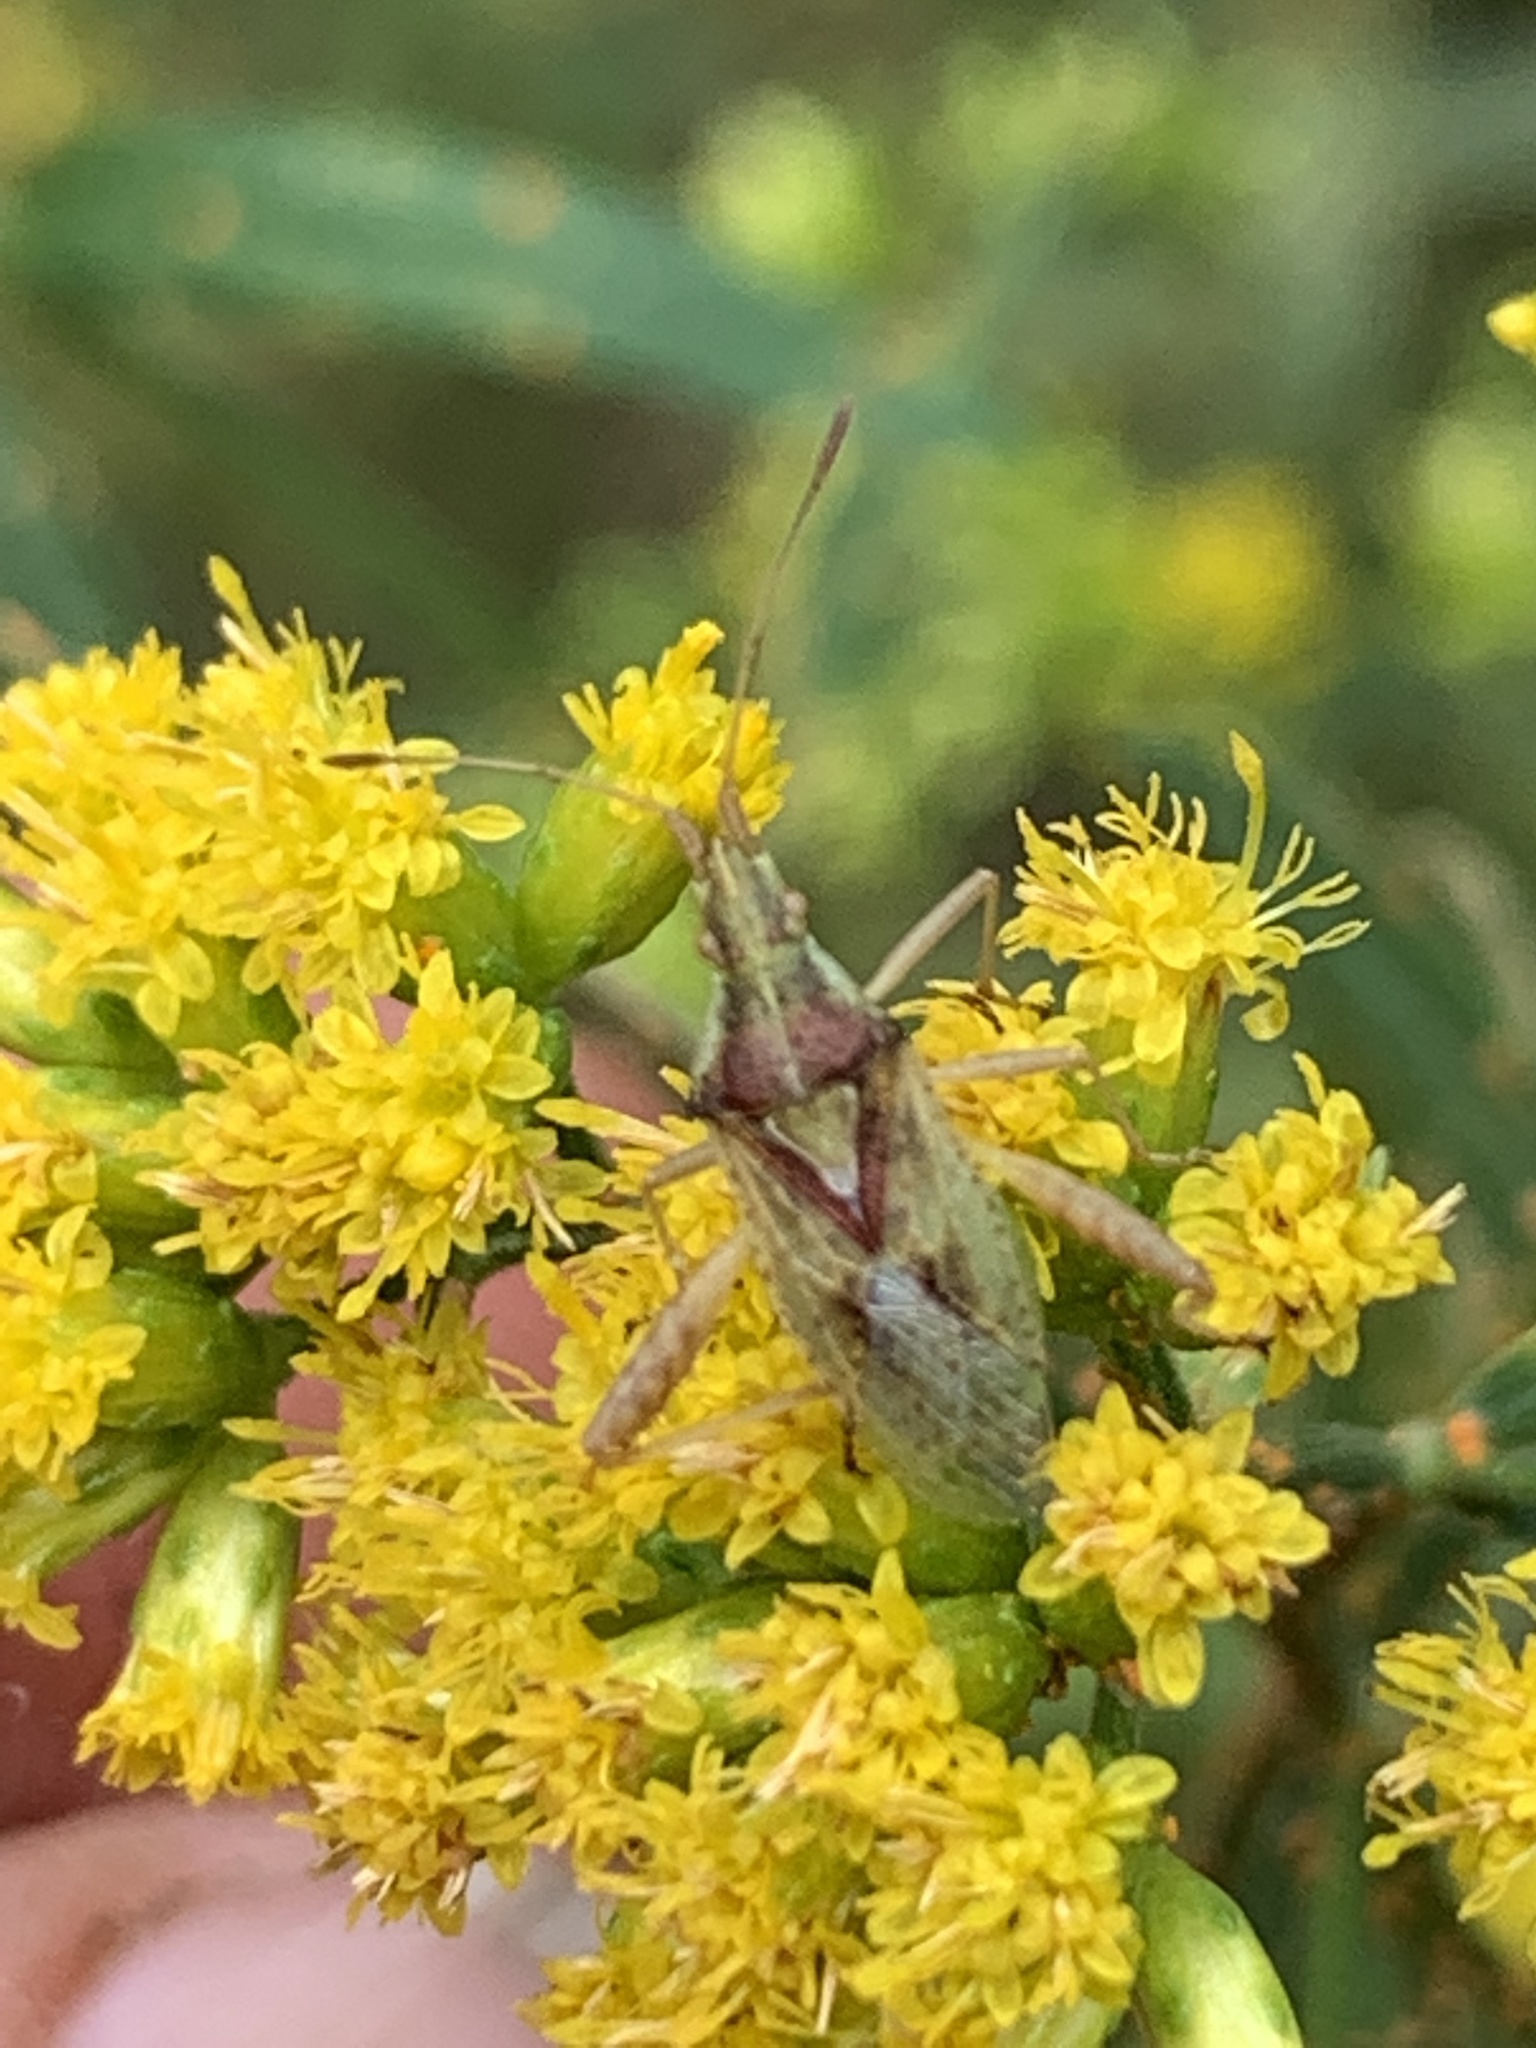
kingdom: Animalia
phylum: Arthropoda
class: Insecta
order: Hemiptera
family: Rhopalidae
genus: Harmostes
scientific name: Harmostes reflexulus
